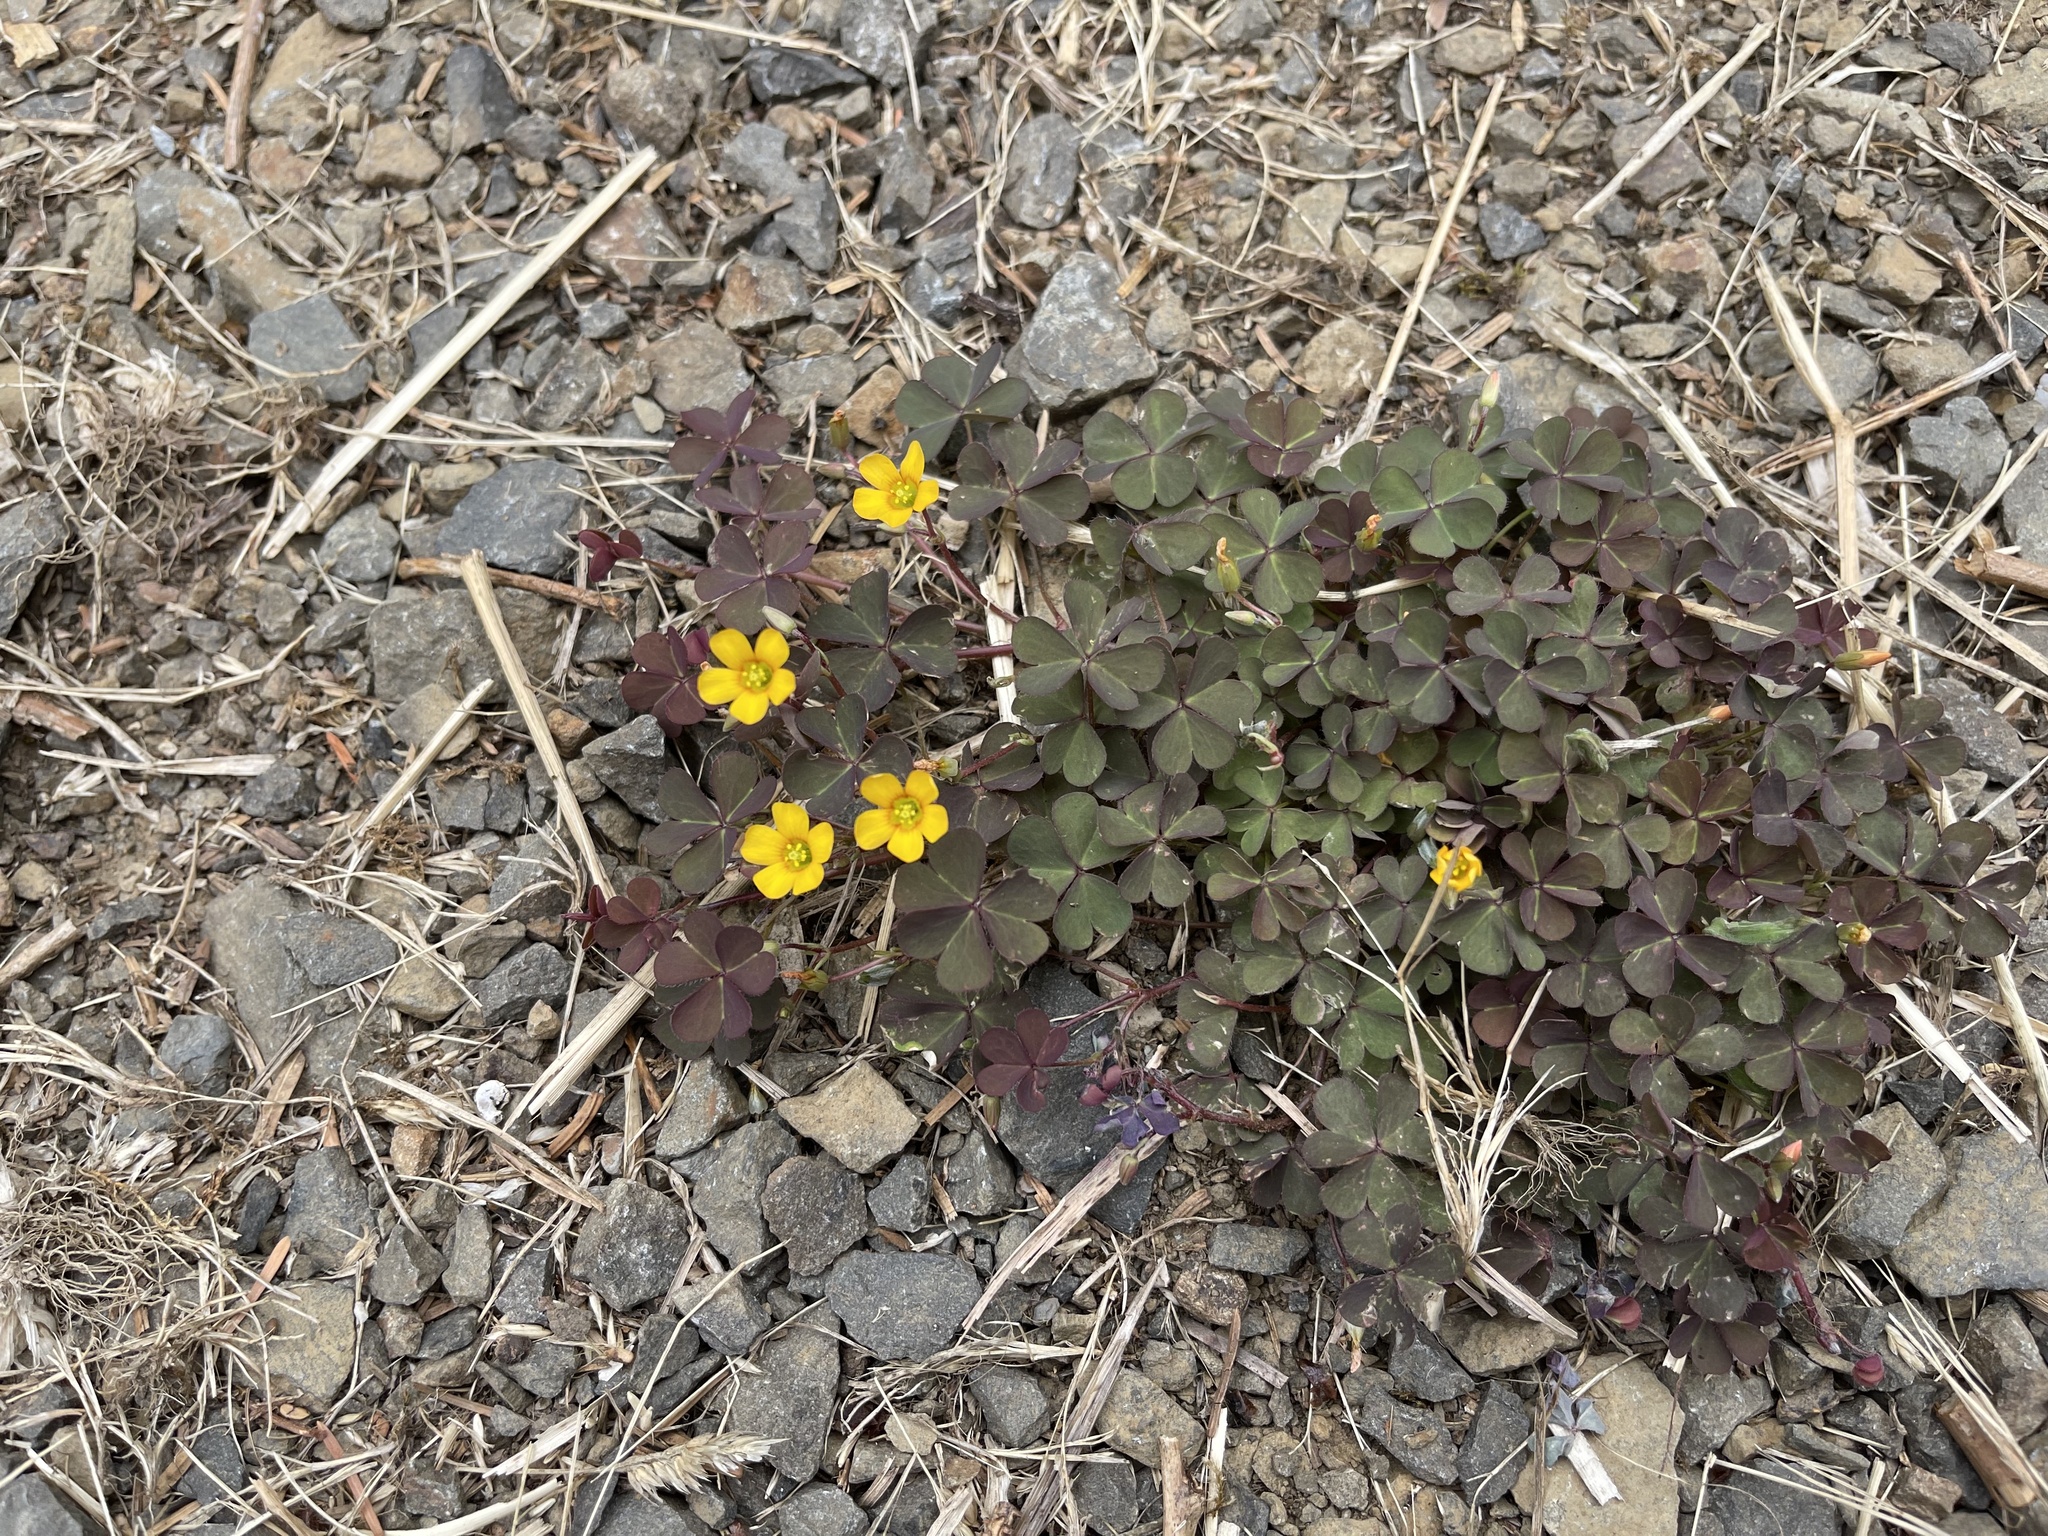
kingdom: Plantae
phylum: Tracheophyta
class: Magnoliopsida
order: Oxalidales
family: Oxalidaceae
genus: Oxalis
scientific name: Oxalis corniculata
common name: Procumbent yellow-sorrel
